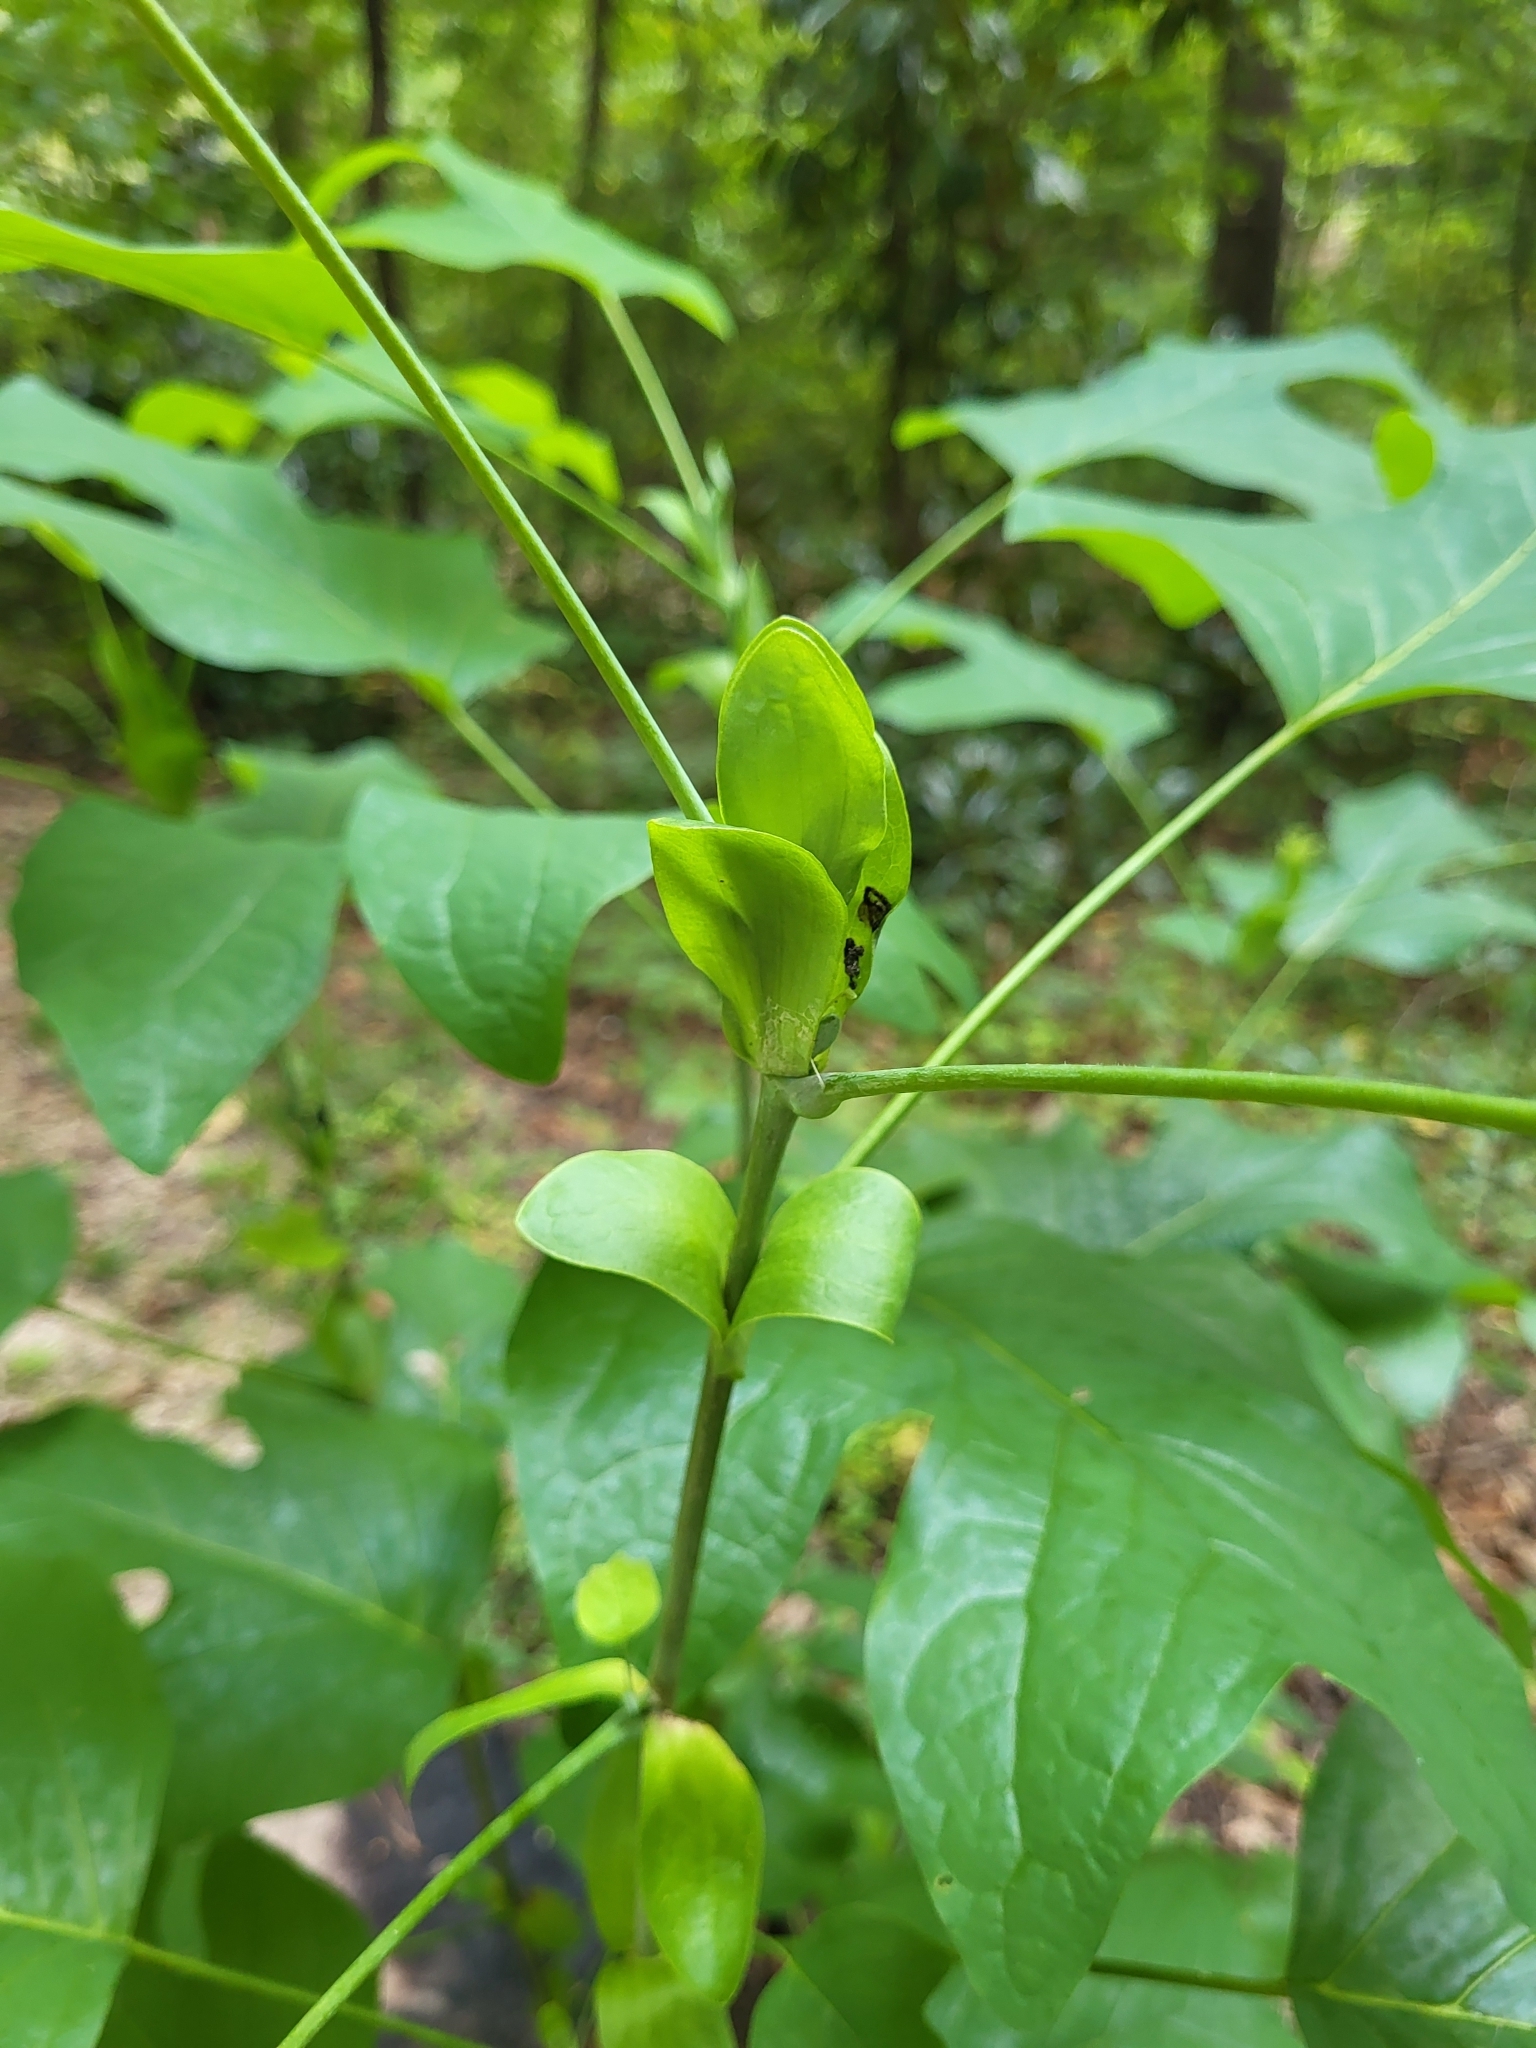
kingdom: Plantae
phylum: Tracheophyta
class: Magnoliopsida
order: Magnoliales
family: Magnoliaceae
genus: Liriodendron
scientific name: Liriodendron tulipifera
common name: Tulip tree
